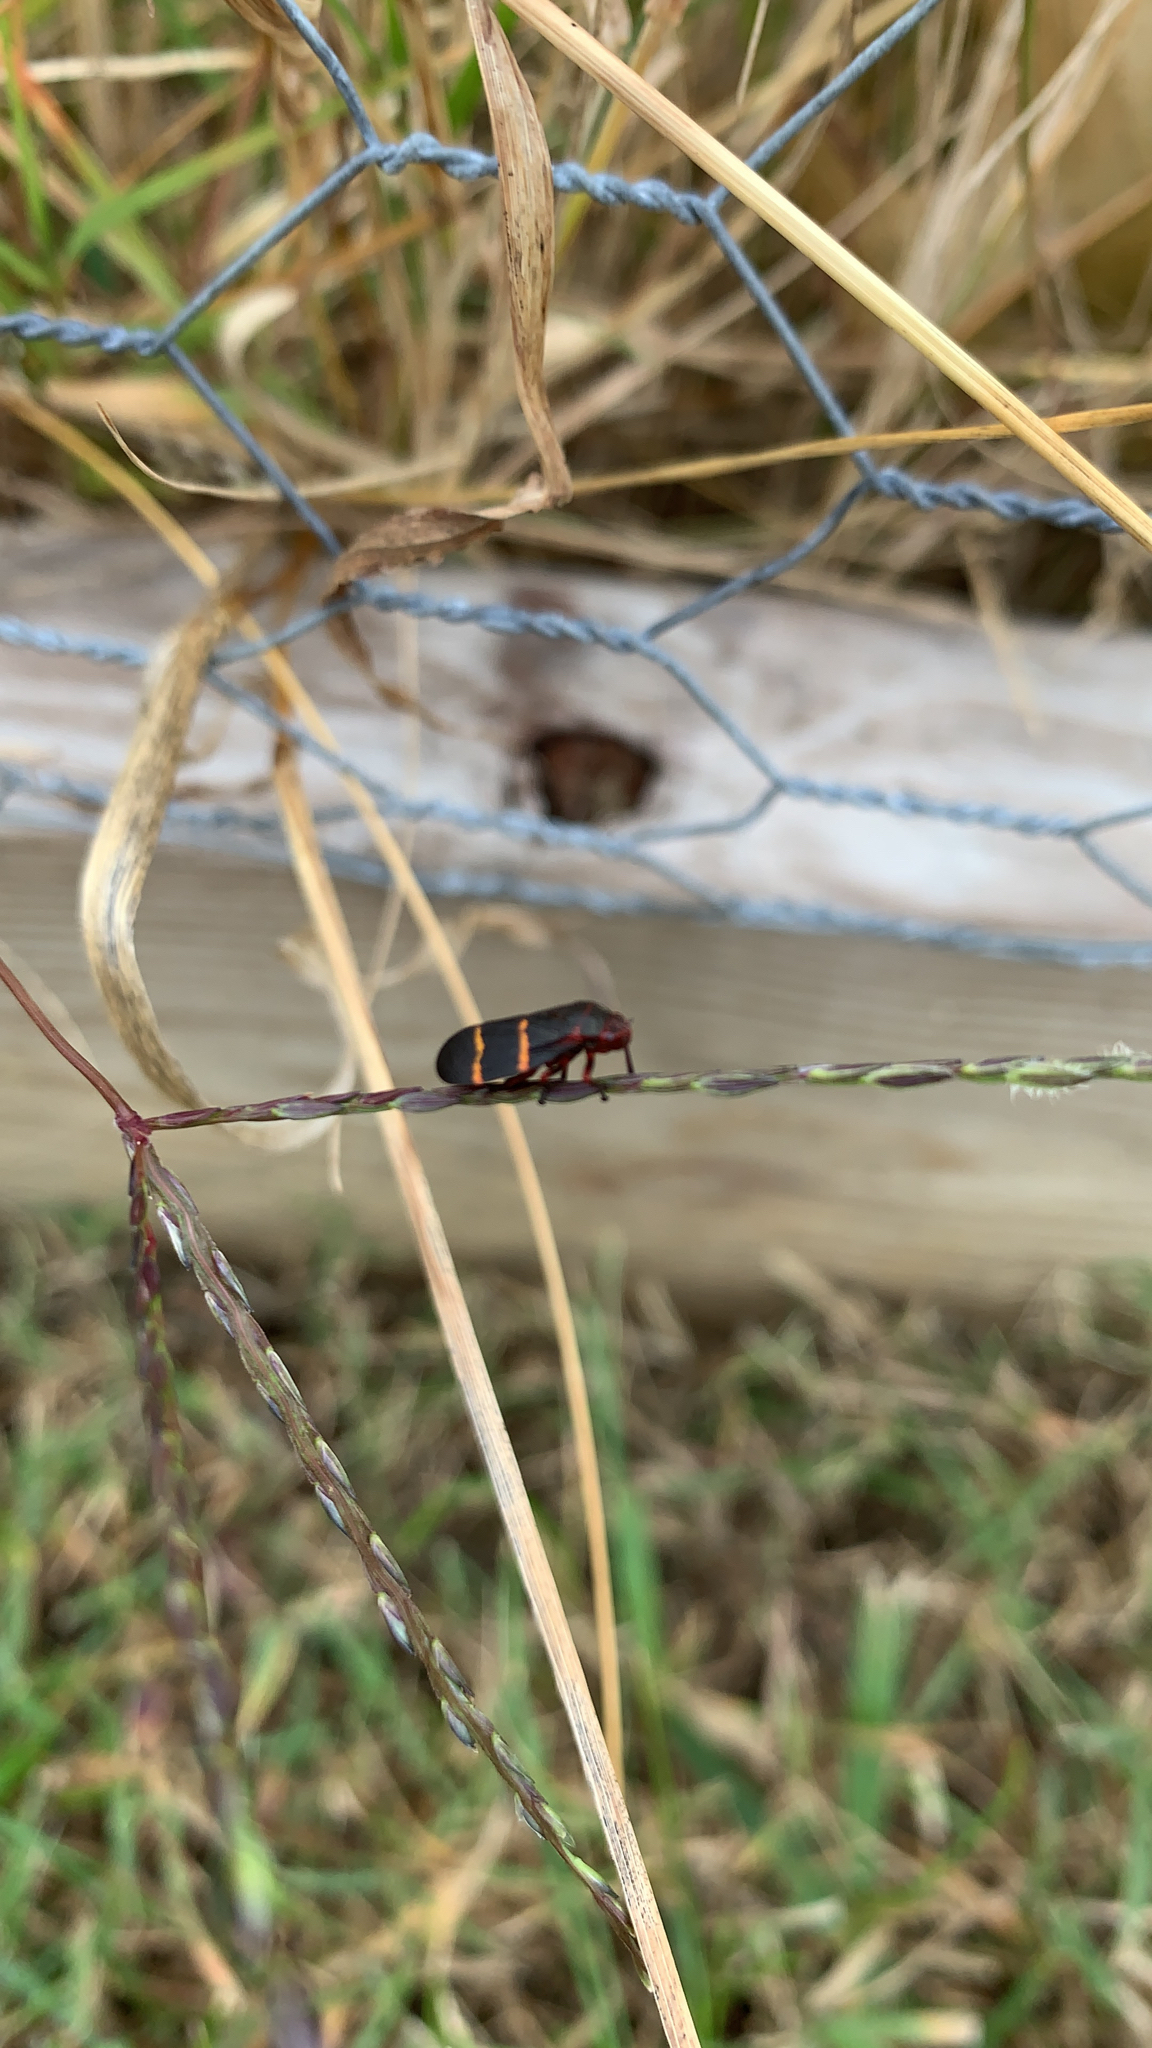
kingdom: Animalia
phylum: Arthropoda
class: Insecta
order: Hemiptera
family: Cercopidae
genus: Prosapia
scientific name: Prosapia bicincta
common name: Twolined spittlebug
